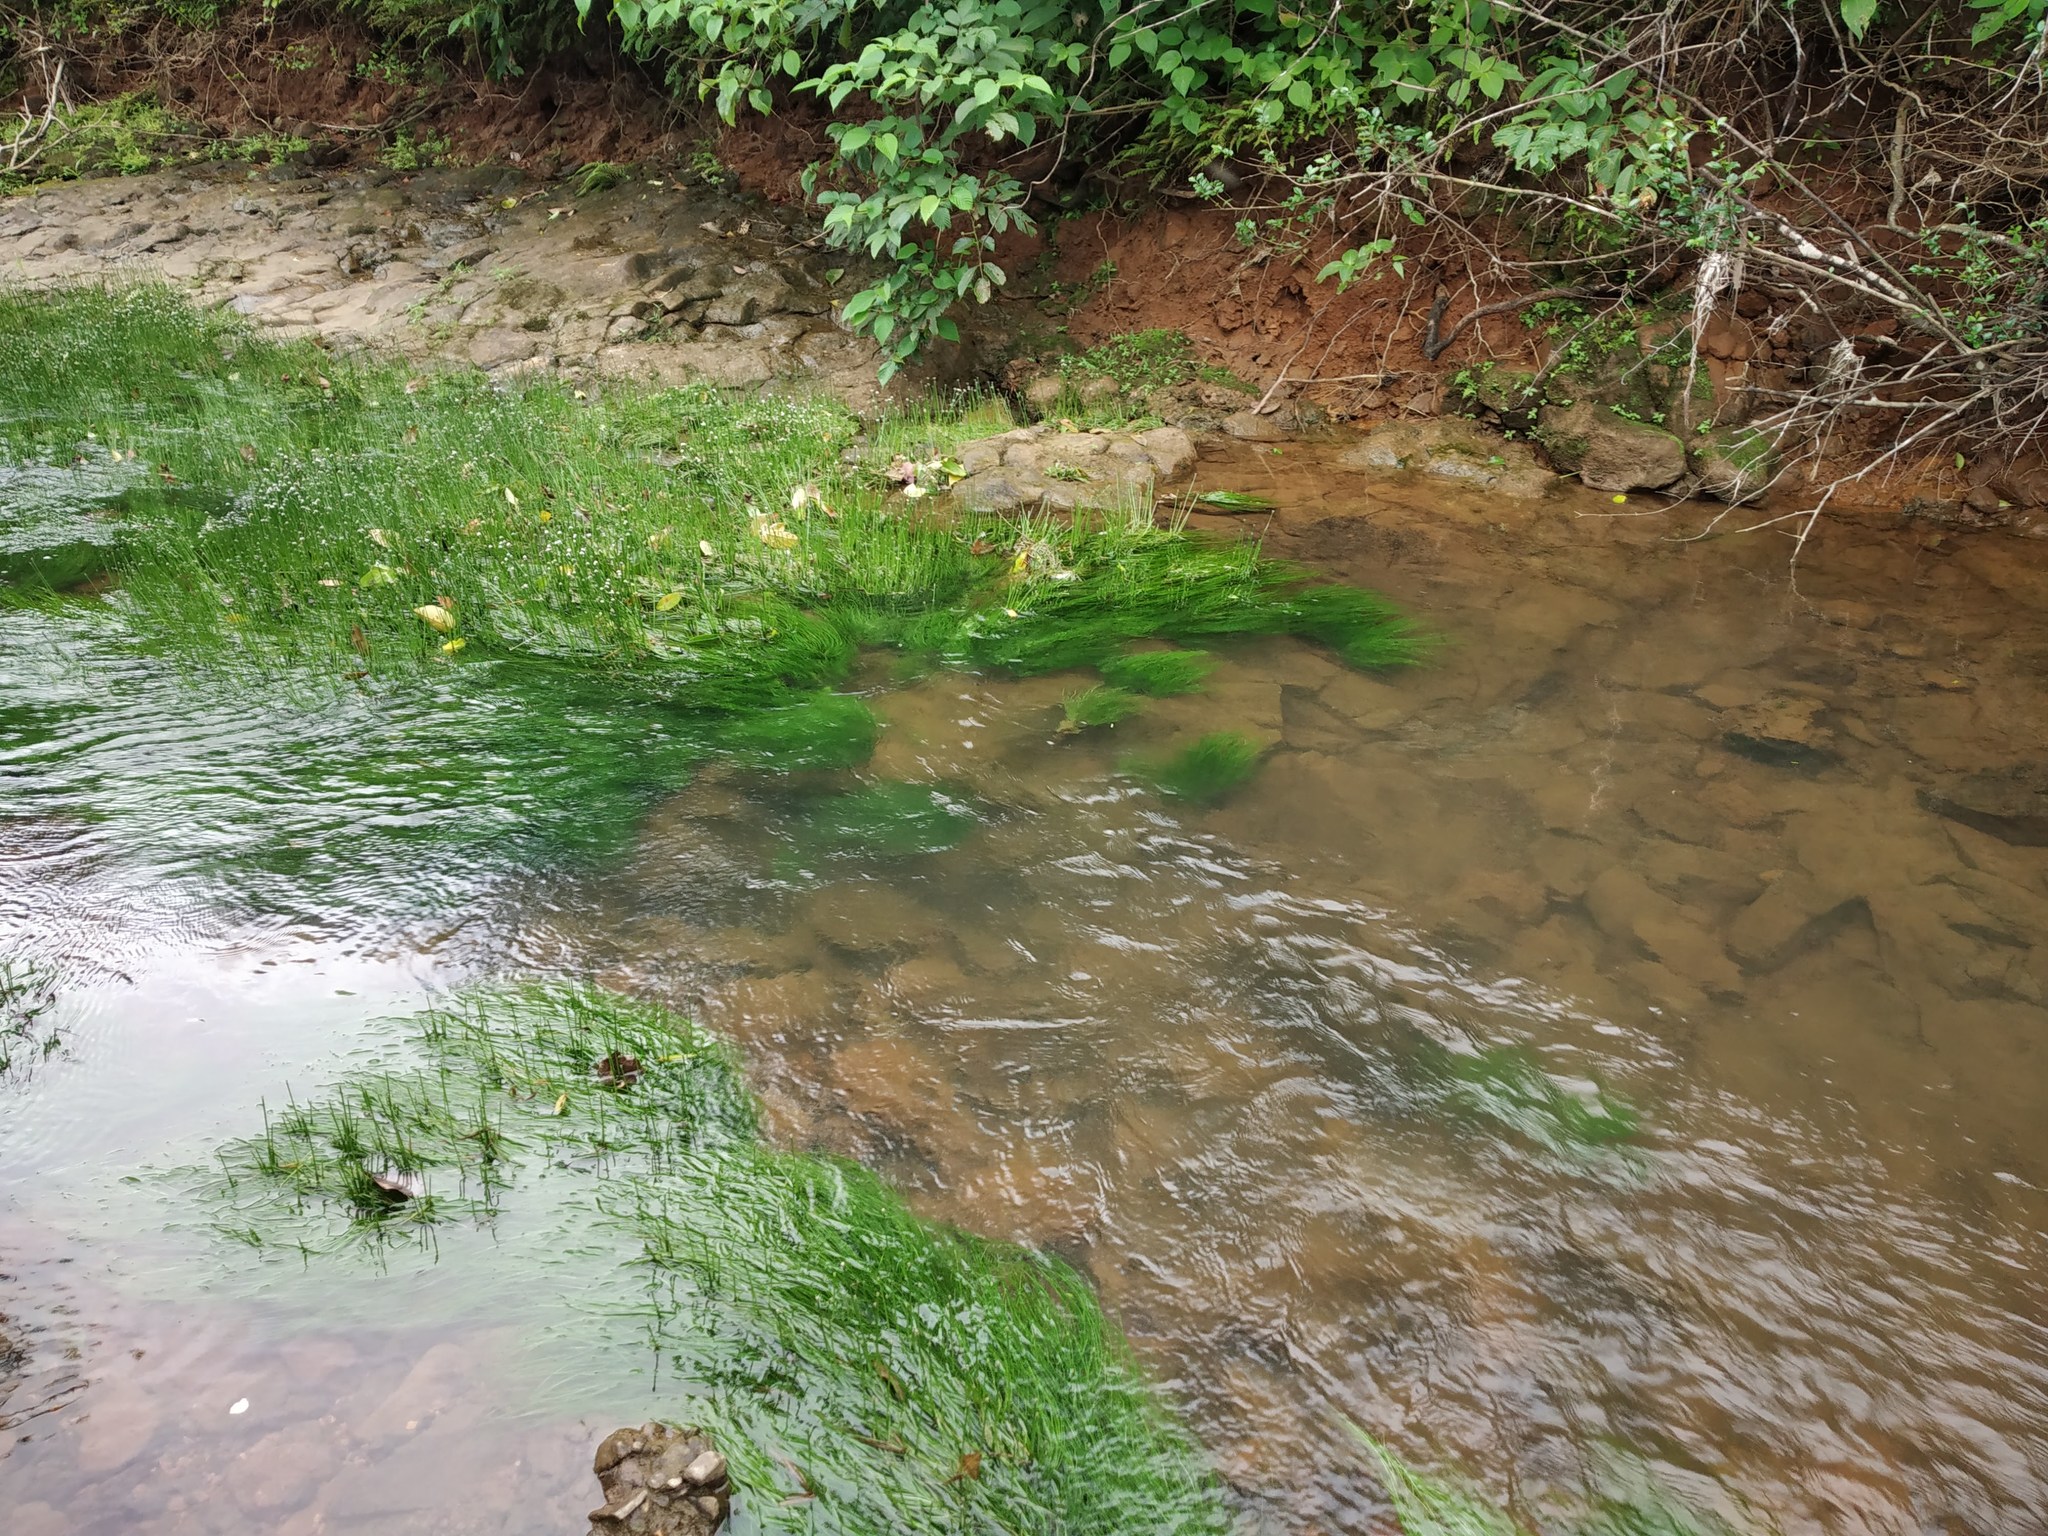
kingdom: Plantae
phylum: Tracheophyta
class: Liliopsida
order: Poales
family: Eriocaulaceae
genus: Eriocaulon
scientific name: Eriocaulon breviscapum
